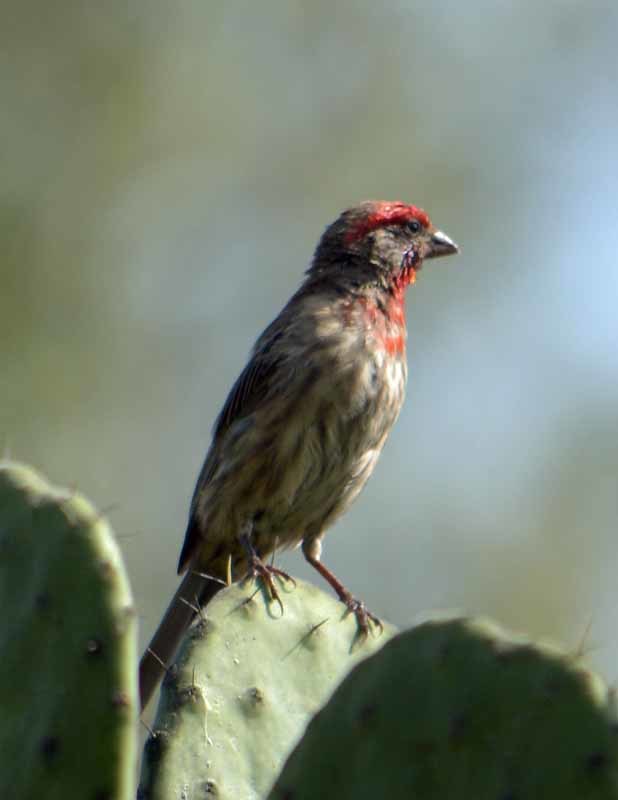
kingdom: Animalia
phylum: Chordata
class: Aves
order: Passeriformes
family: Fringillidae
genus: Haemorhous
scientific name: Haemorhous mexicanus
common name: House finch
